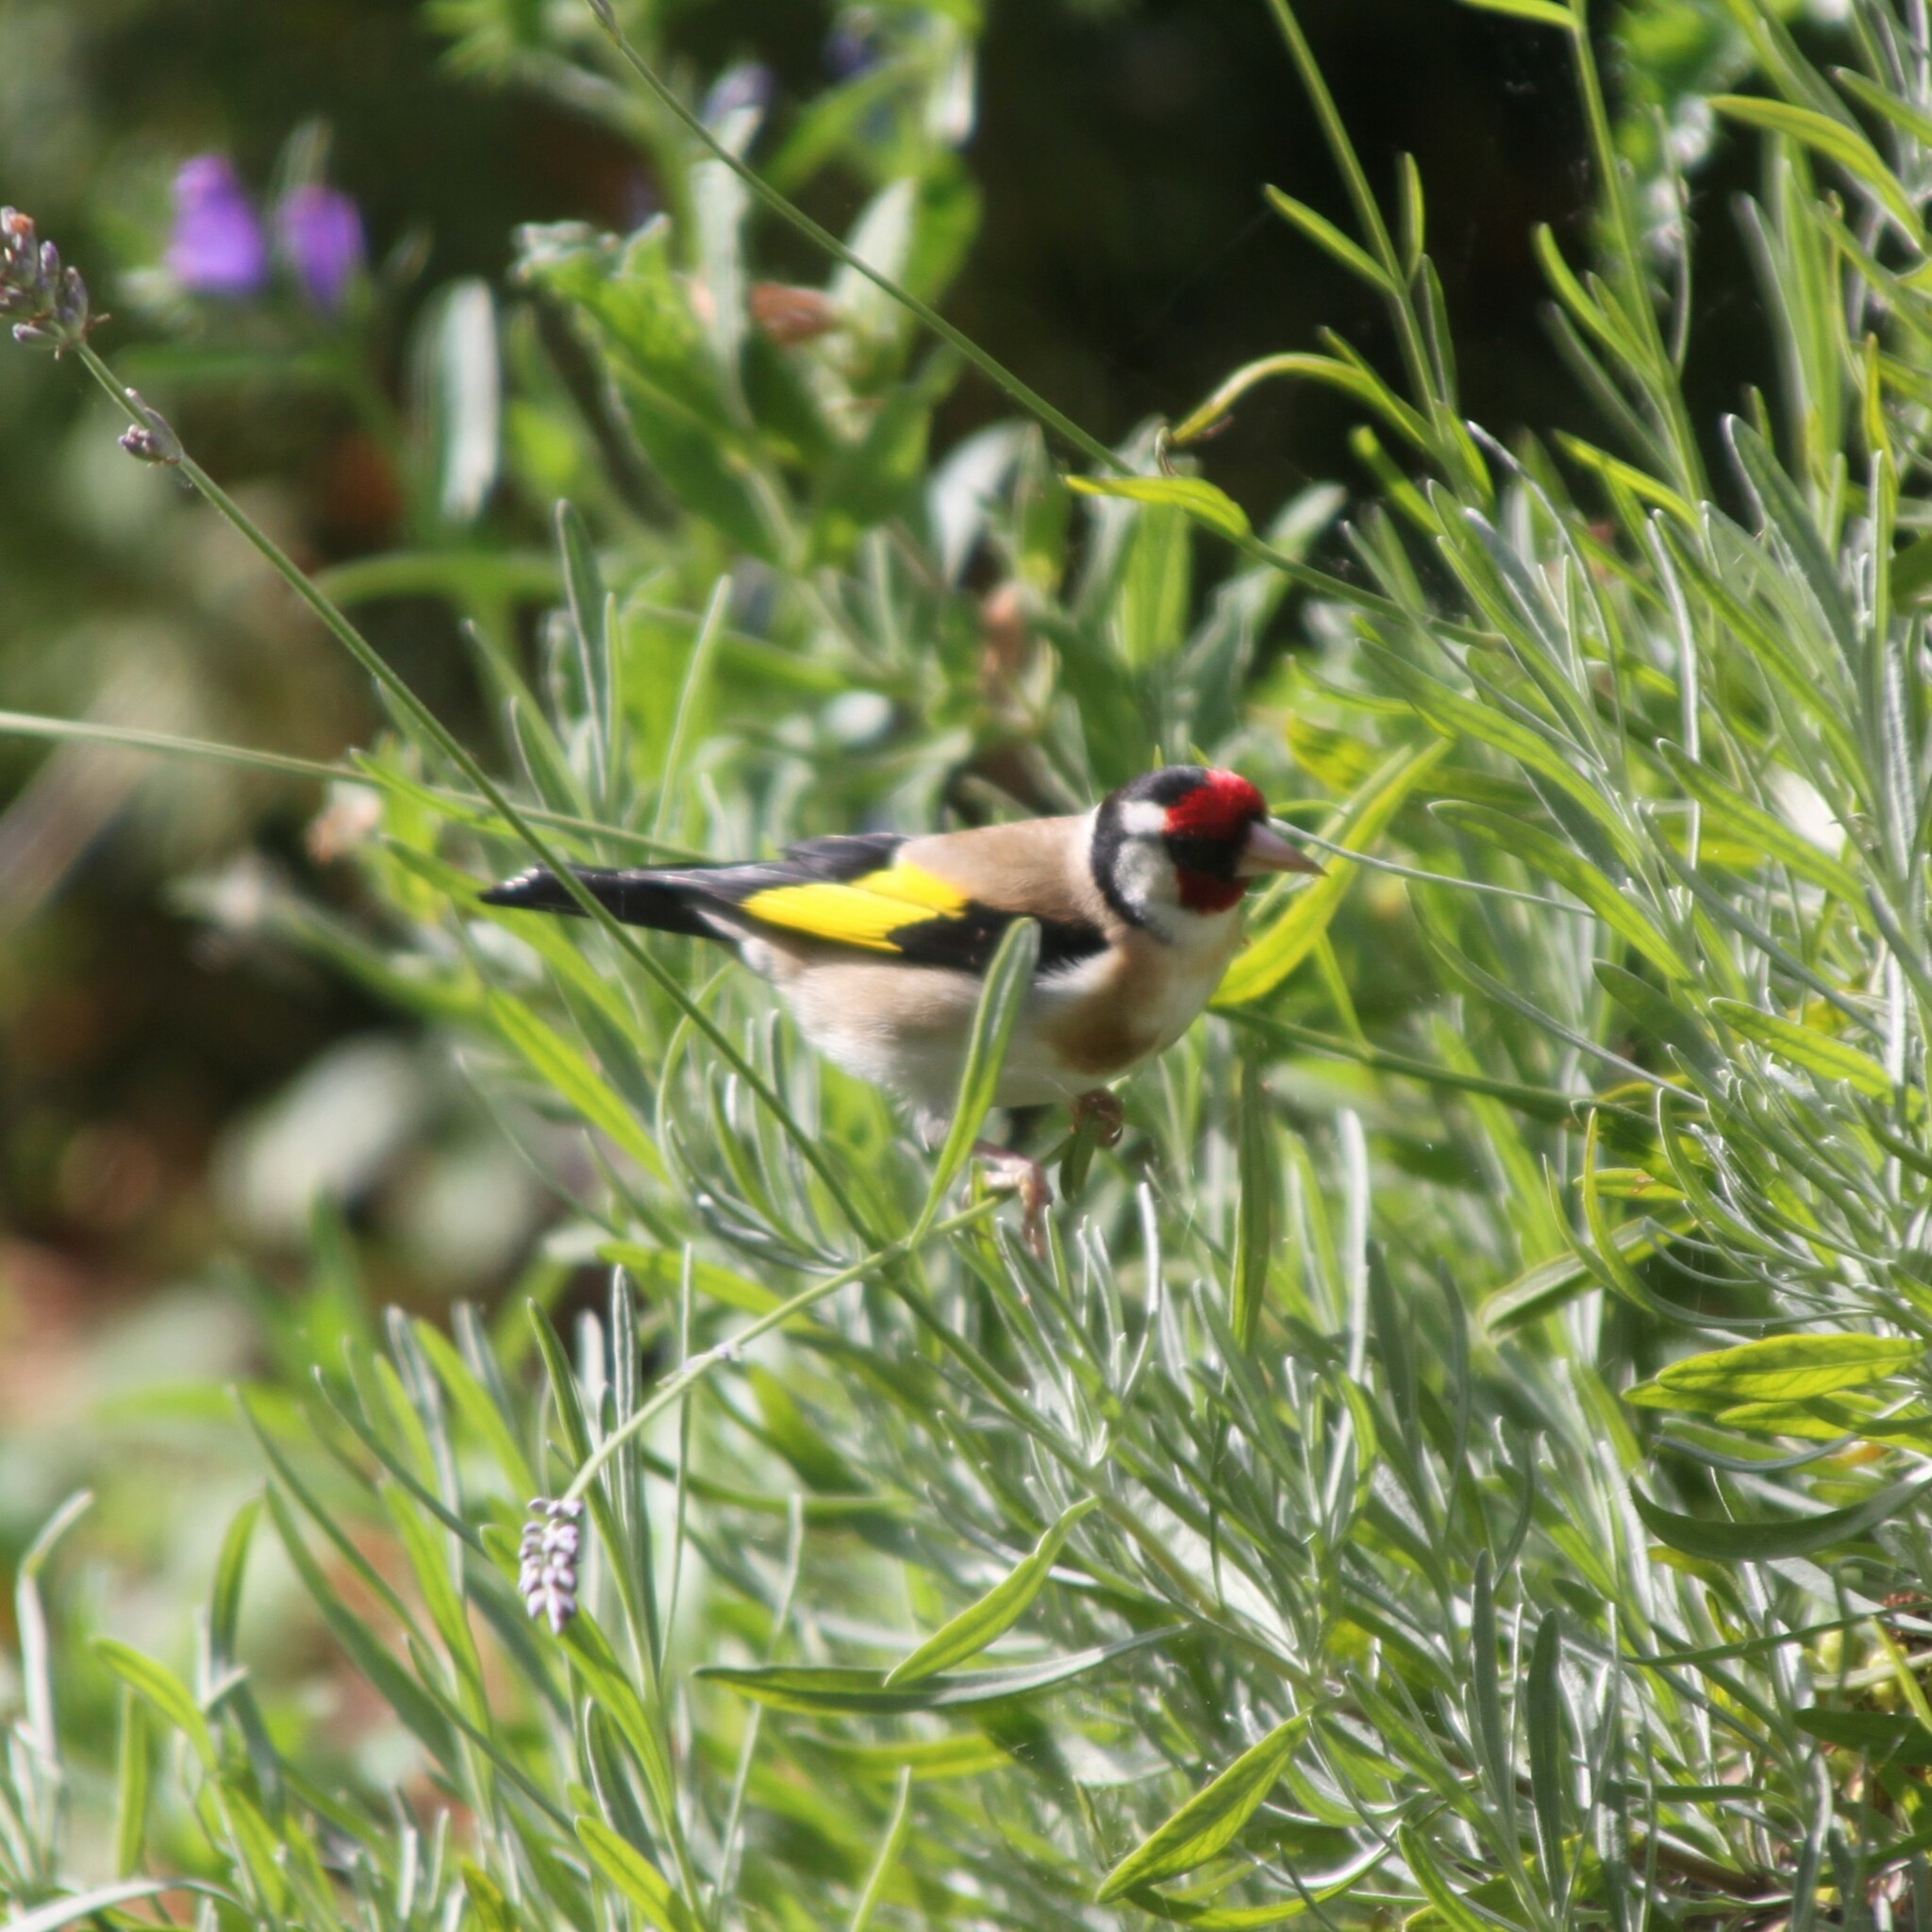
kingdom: Animalia
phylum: Chordata
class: Aves
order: Passeriformes
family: Fringillidae
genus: Carduelis
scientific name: Carduelis carduelis
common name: European goldfinch
